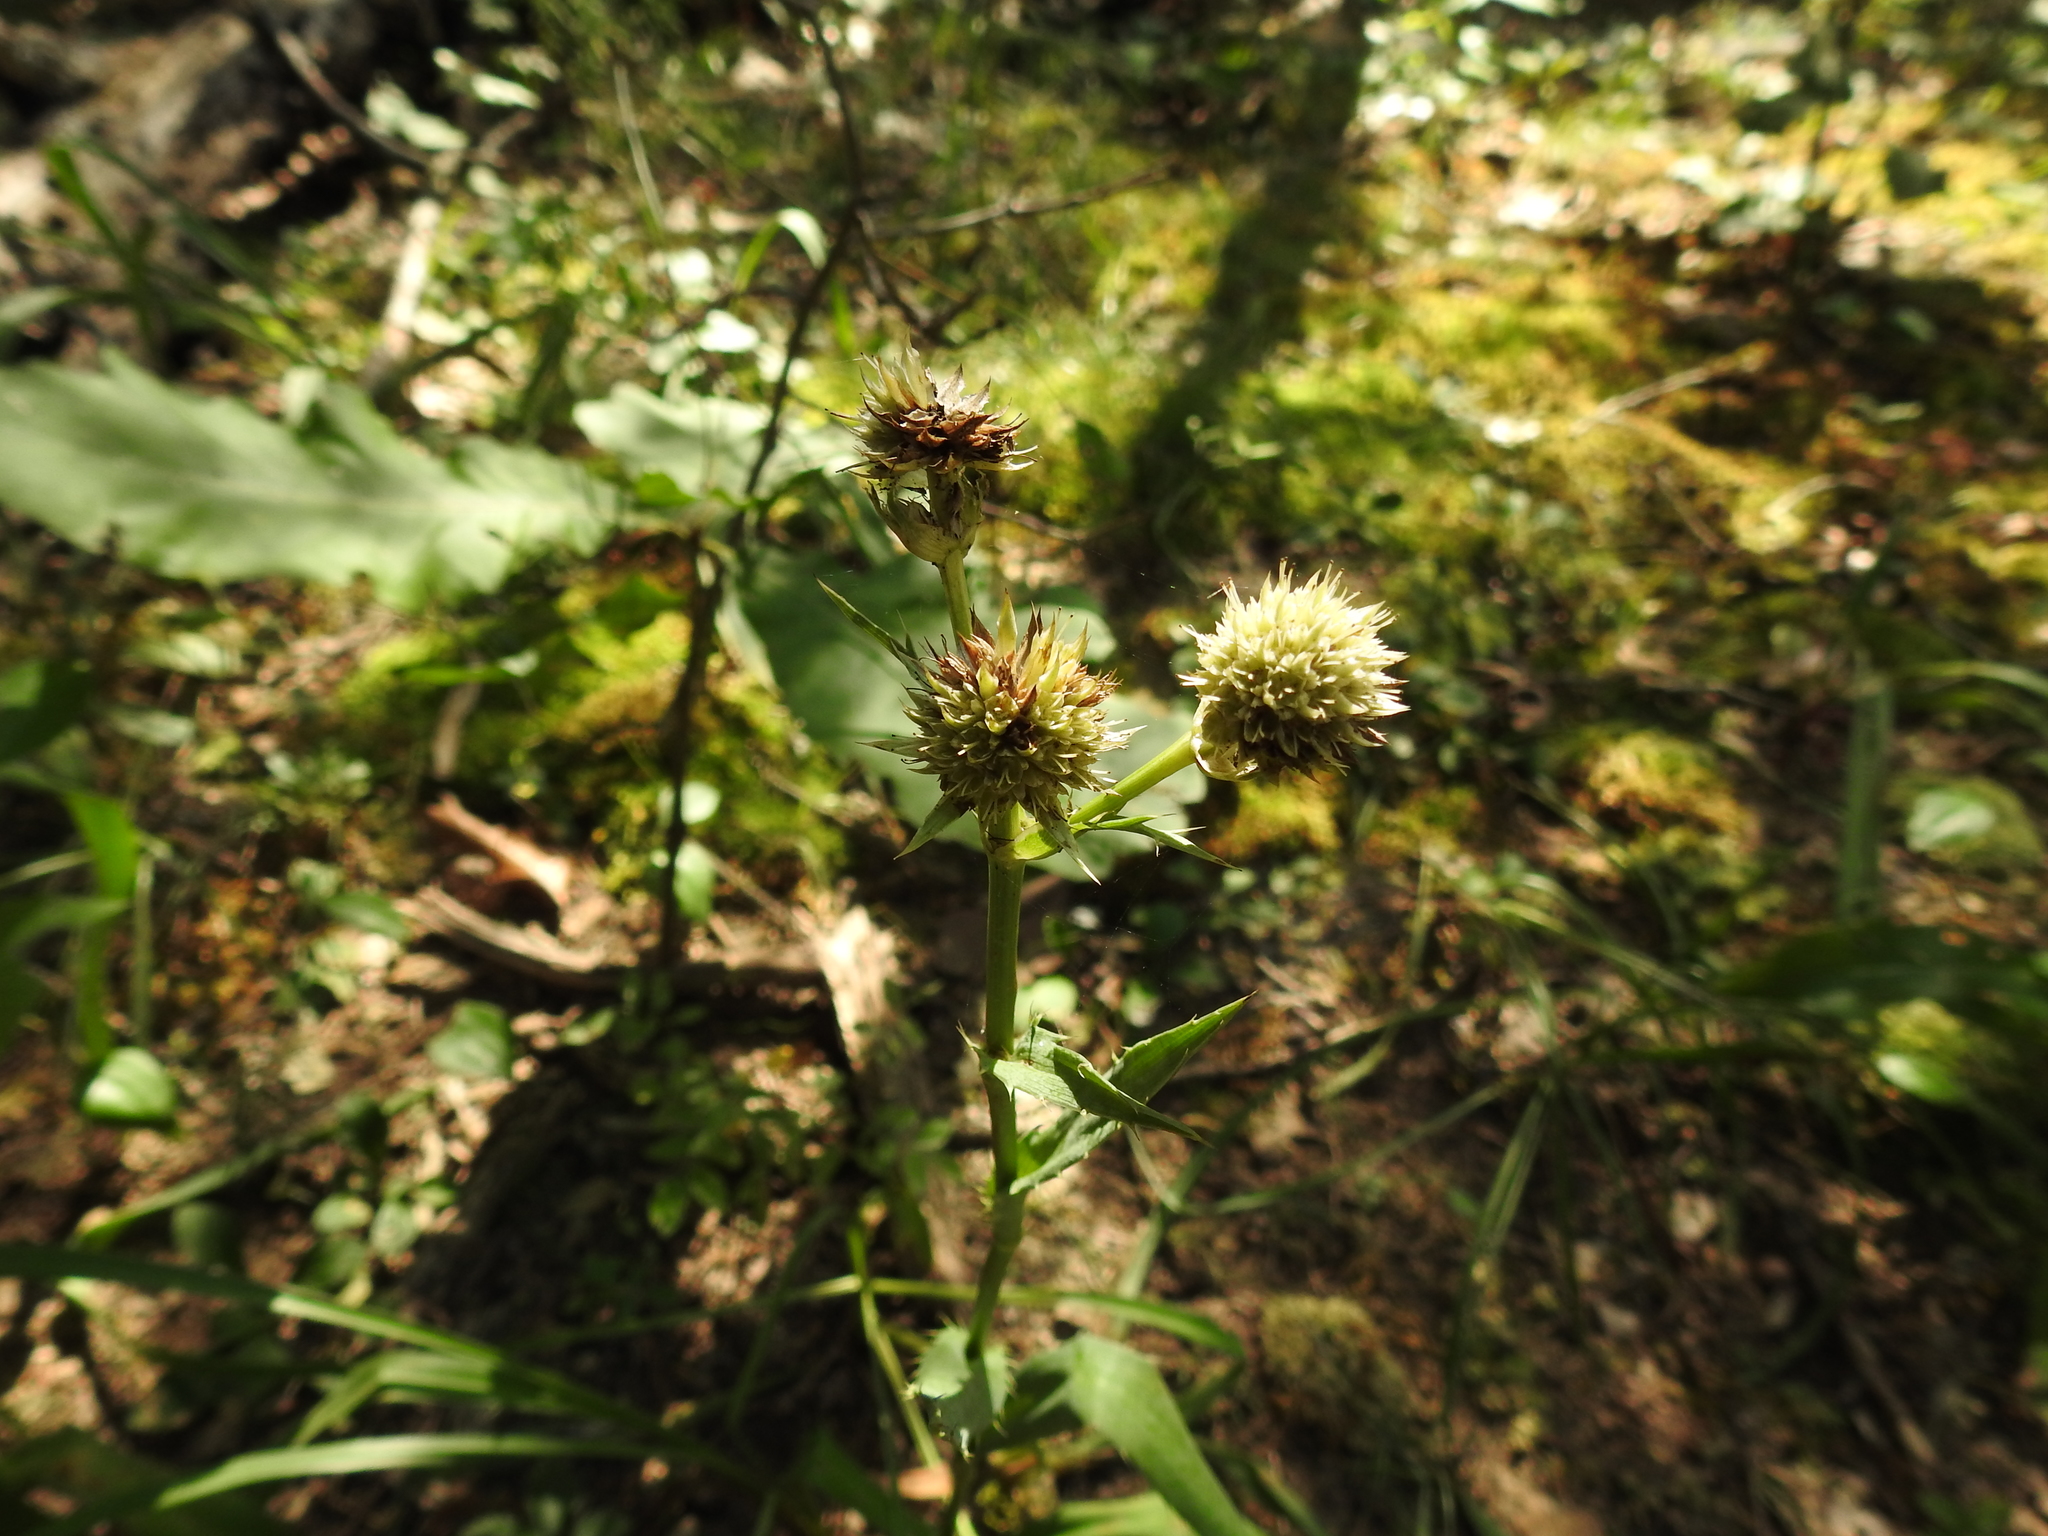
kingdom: Plantae
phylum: Tracheophyta
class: Magnoliopsida
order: Apiales
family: Apiaceae
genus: Eryngium
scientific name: Eryngium yuccifolium
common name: Button eryngo
